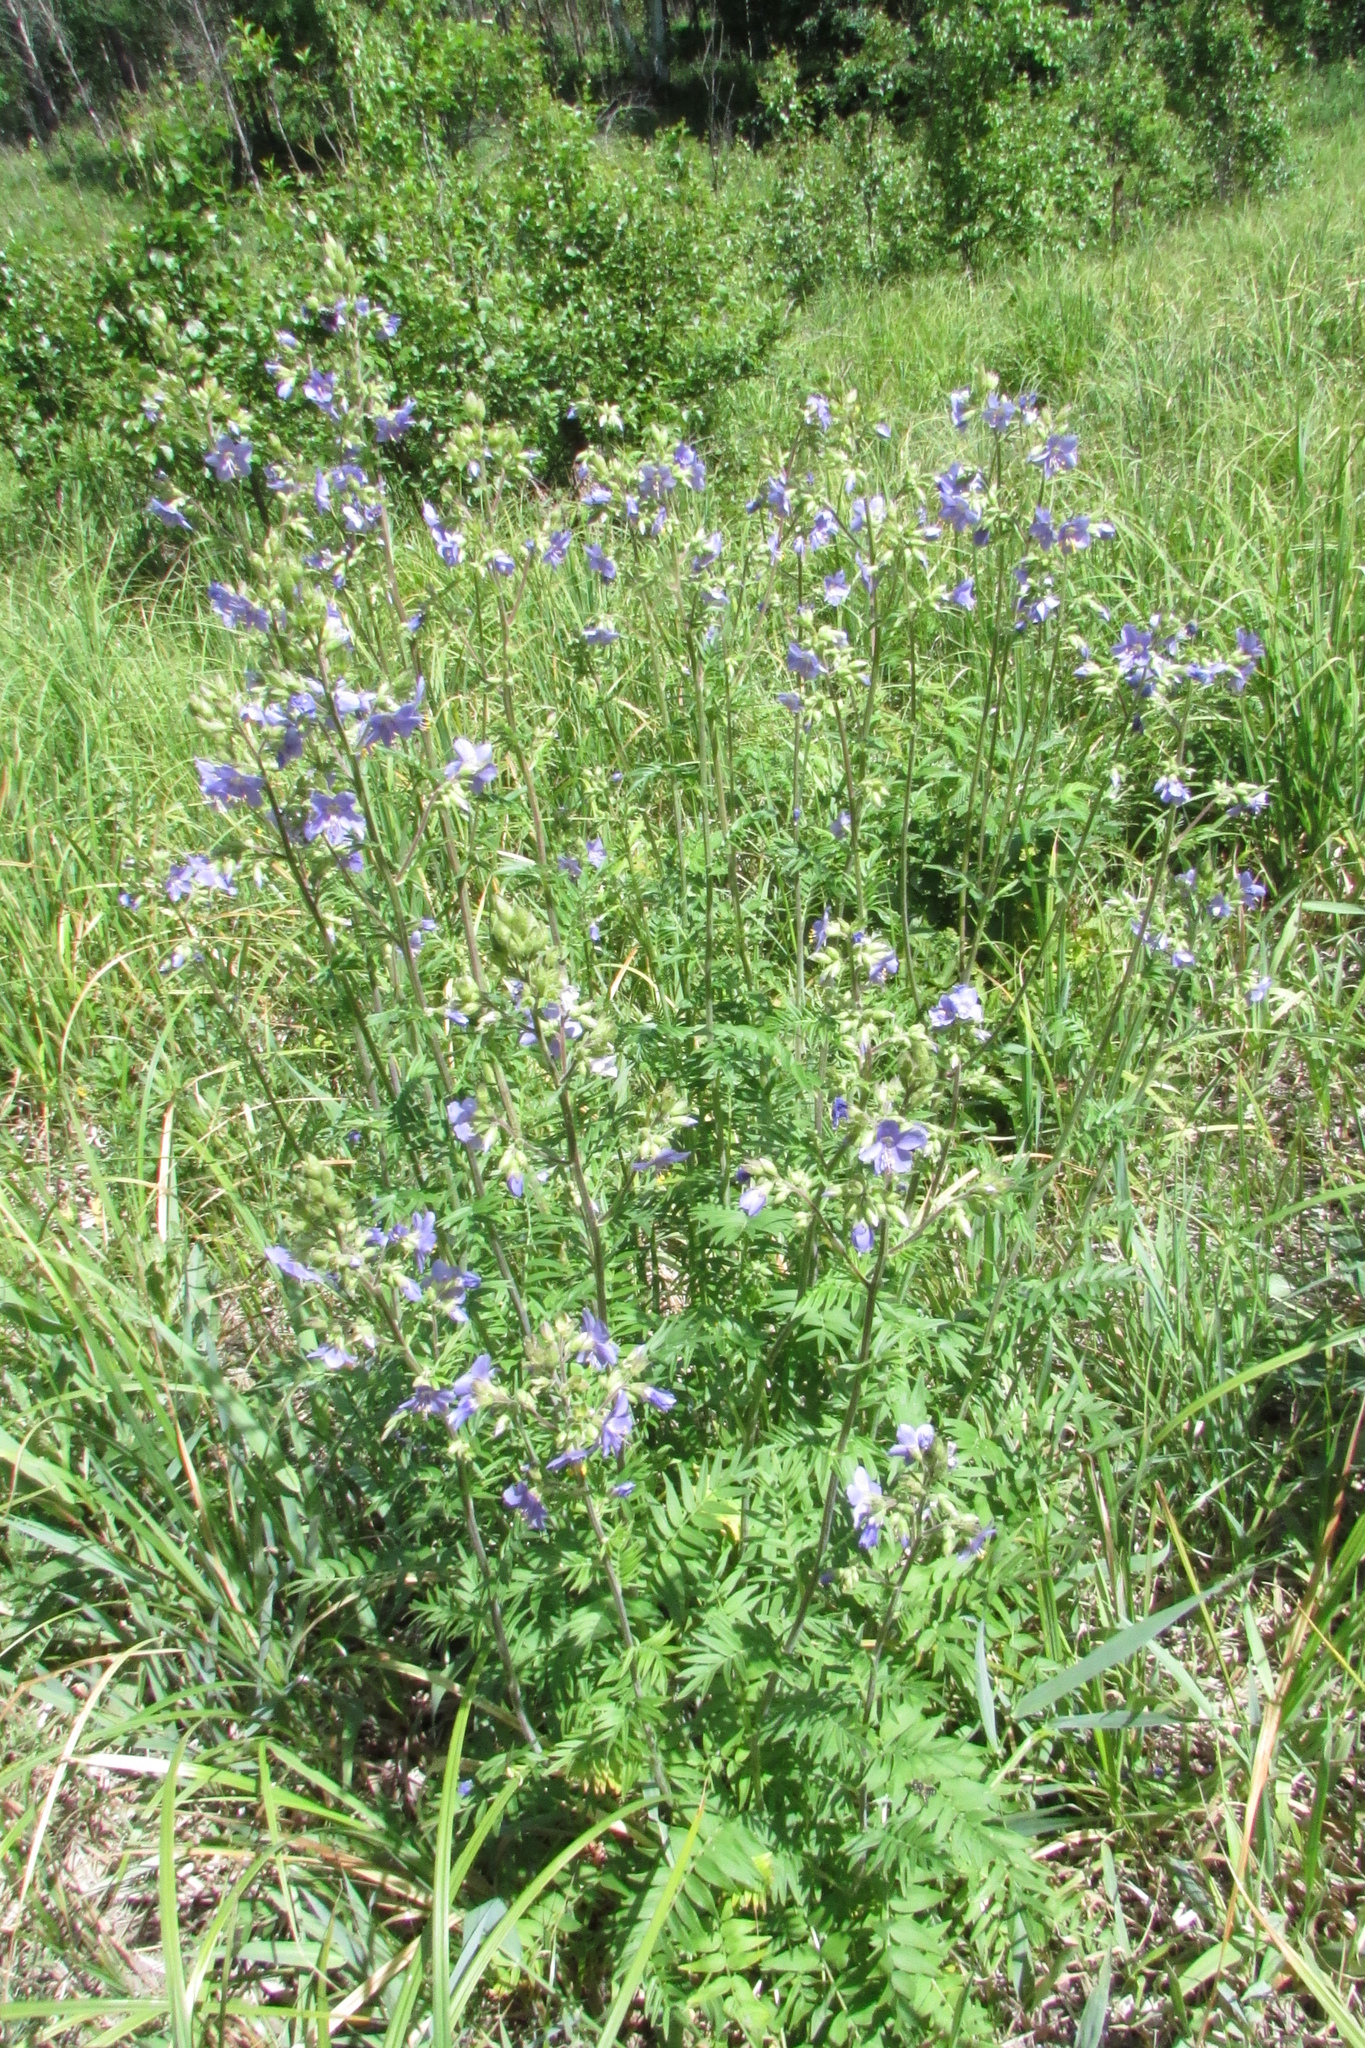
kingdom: Plantae
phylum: Tracheophyta
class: Magnoliopsida
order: Ericales
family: Polemoniaceae
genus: Polemonium
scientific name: Polemonium caeruleum
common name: Jacob's-ladder
